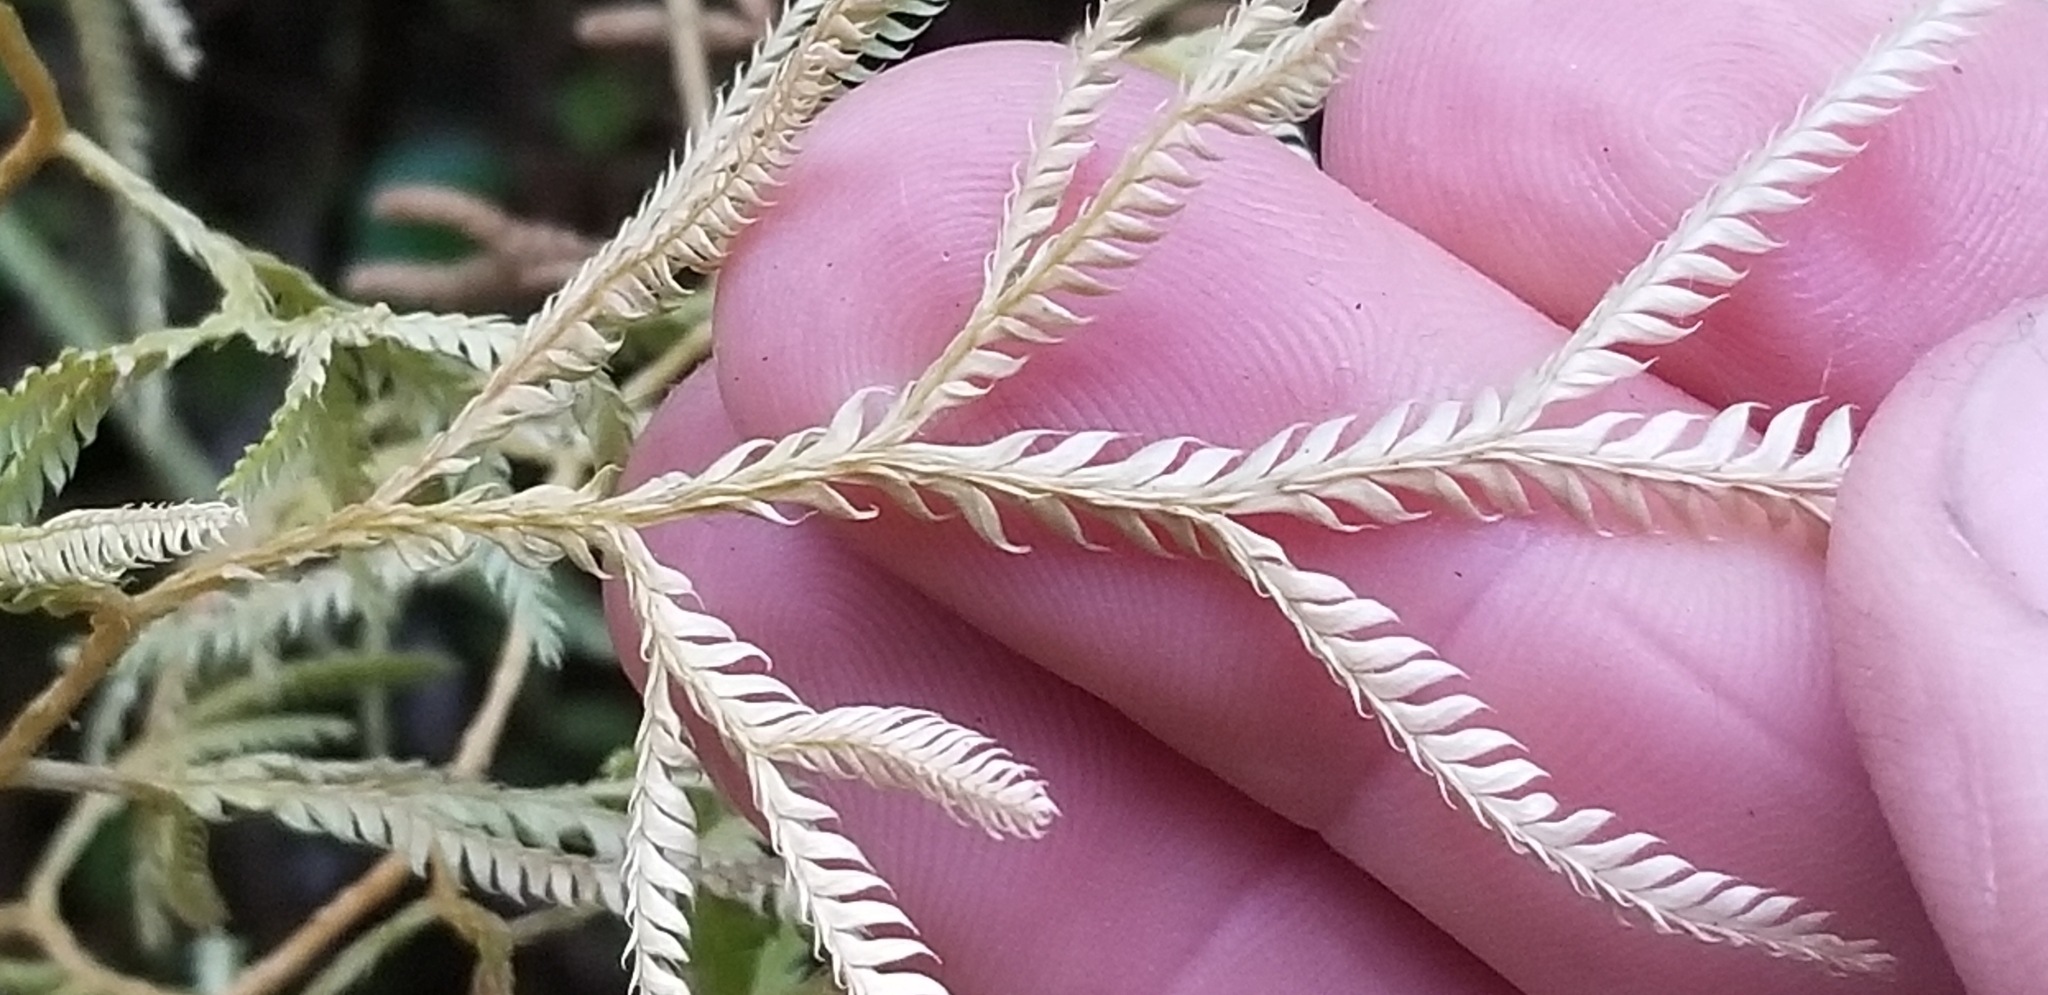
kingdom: Plantae
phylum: Tracheophyta
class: Lycopodiopsida
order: Lycopodiales
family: Lycopodiaceae
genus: Lycopodium
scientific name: Lycopodium volubile
